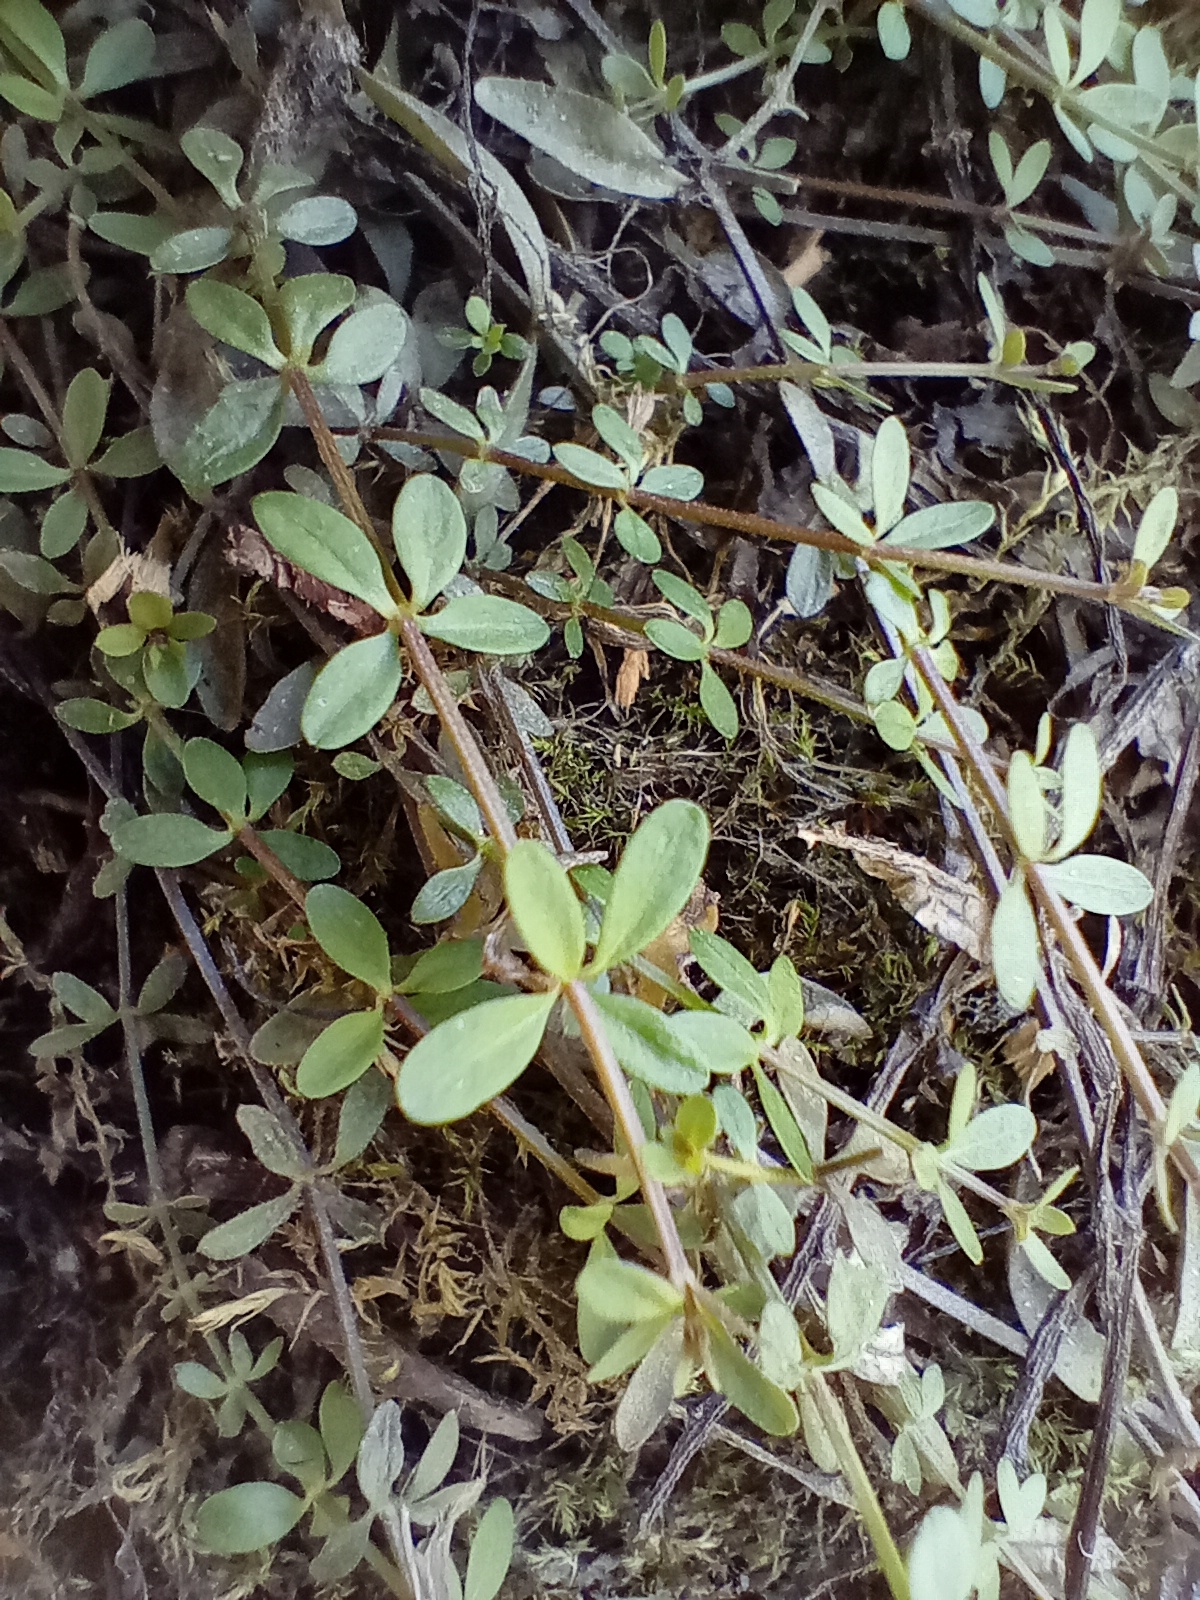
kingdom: Plantae
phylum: Tracheophyta
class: Magnoliopsida
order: Gentianales
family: Rubiaceae
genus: Galium
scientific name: Galium palustre
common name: Common marsh-bedstraw
